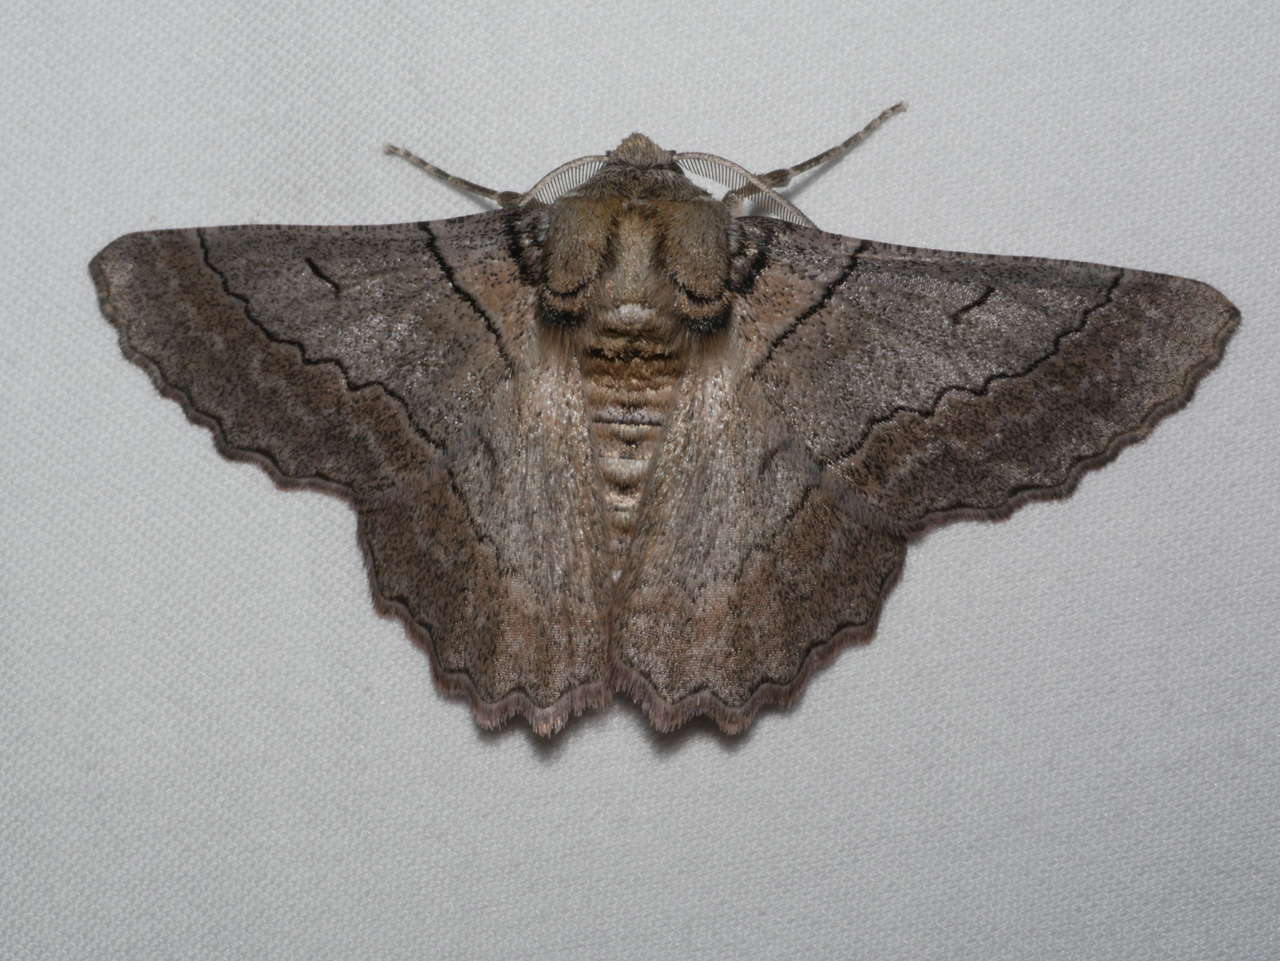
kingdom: Animalia
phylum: Arthropoda
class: Insecta
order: Lepidoptera
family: Geometridae
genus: Hypobapta
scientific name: Hypobapta tachyhalotaria
